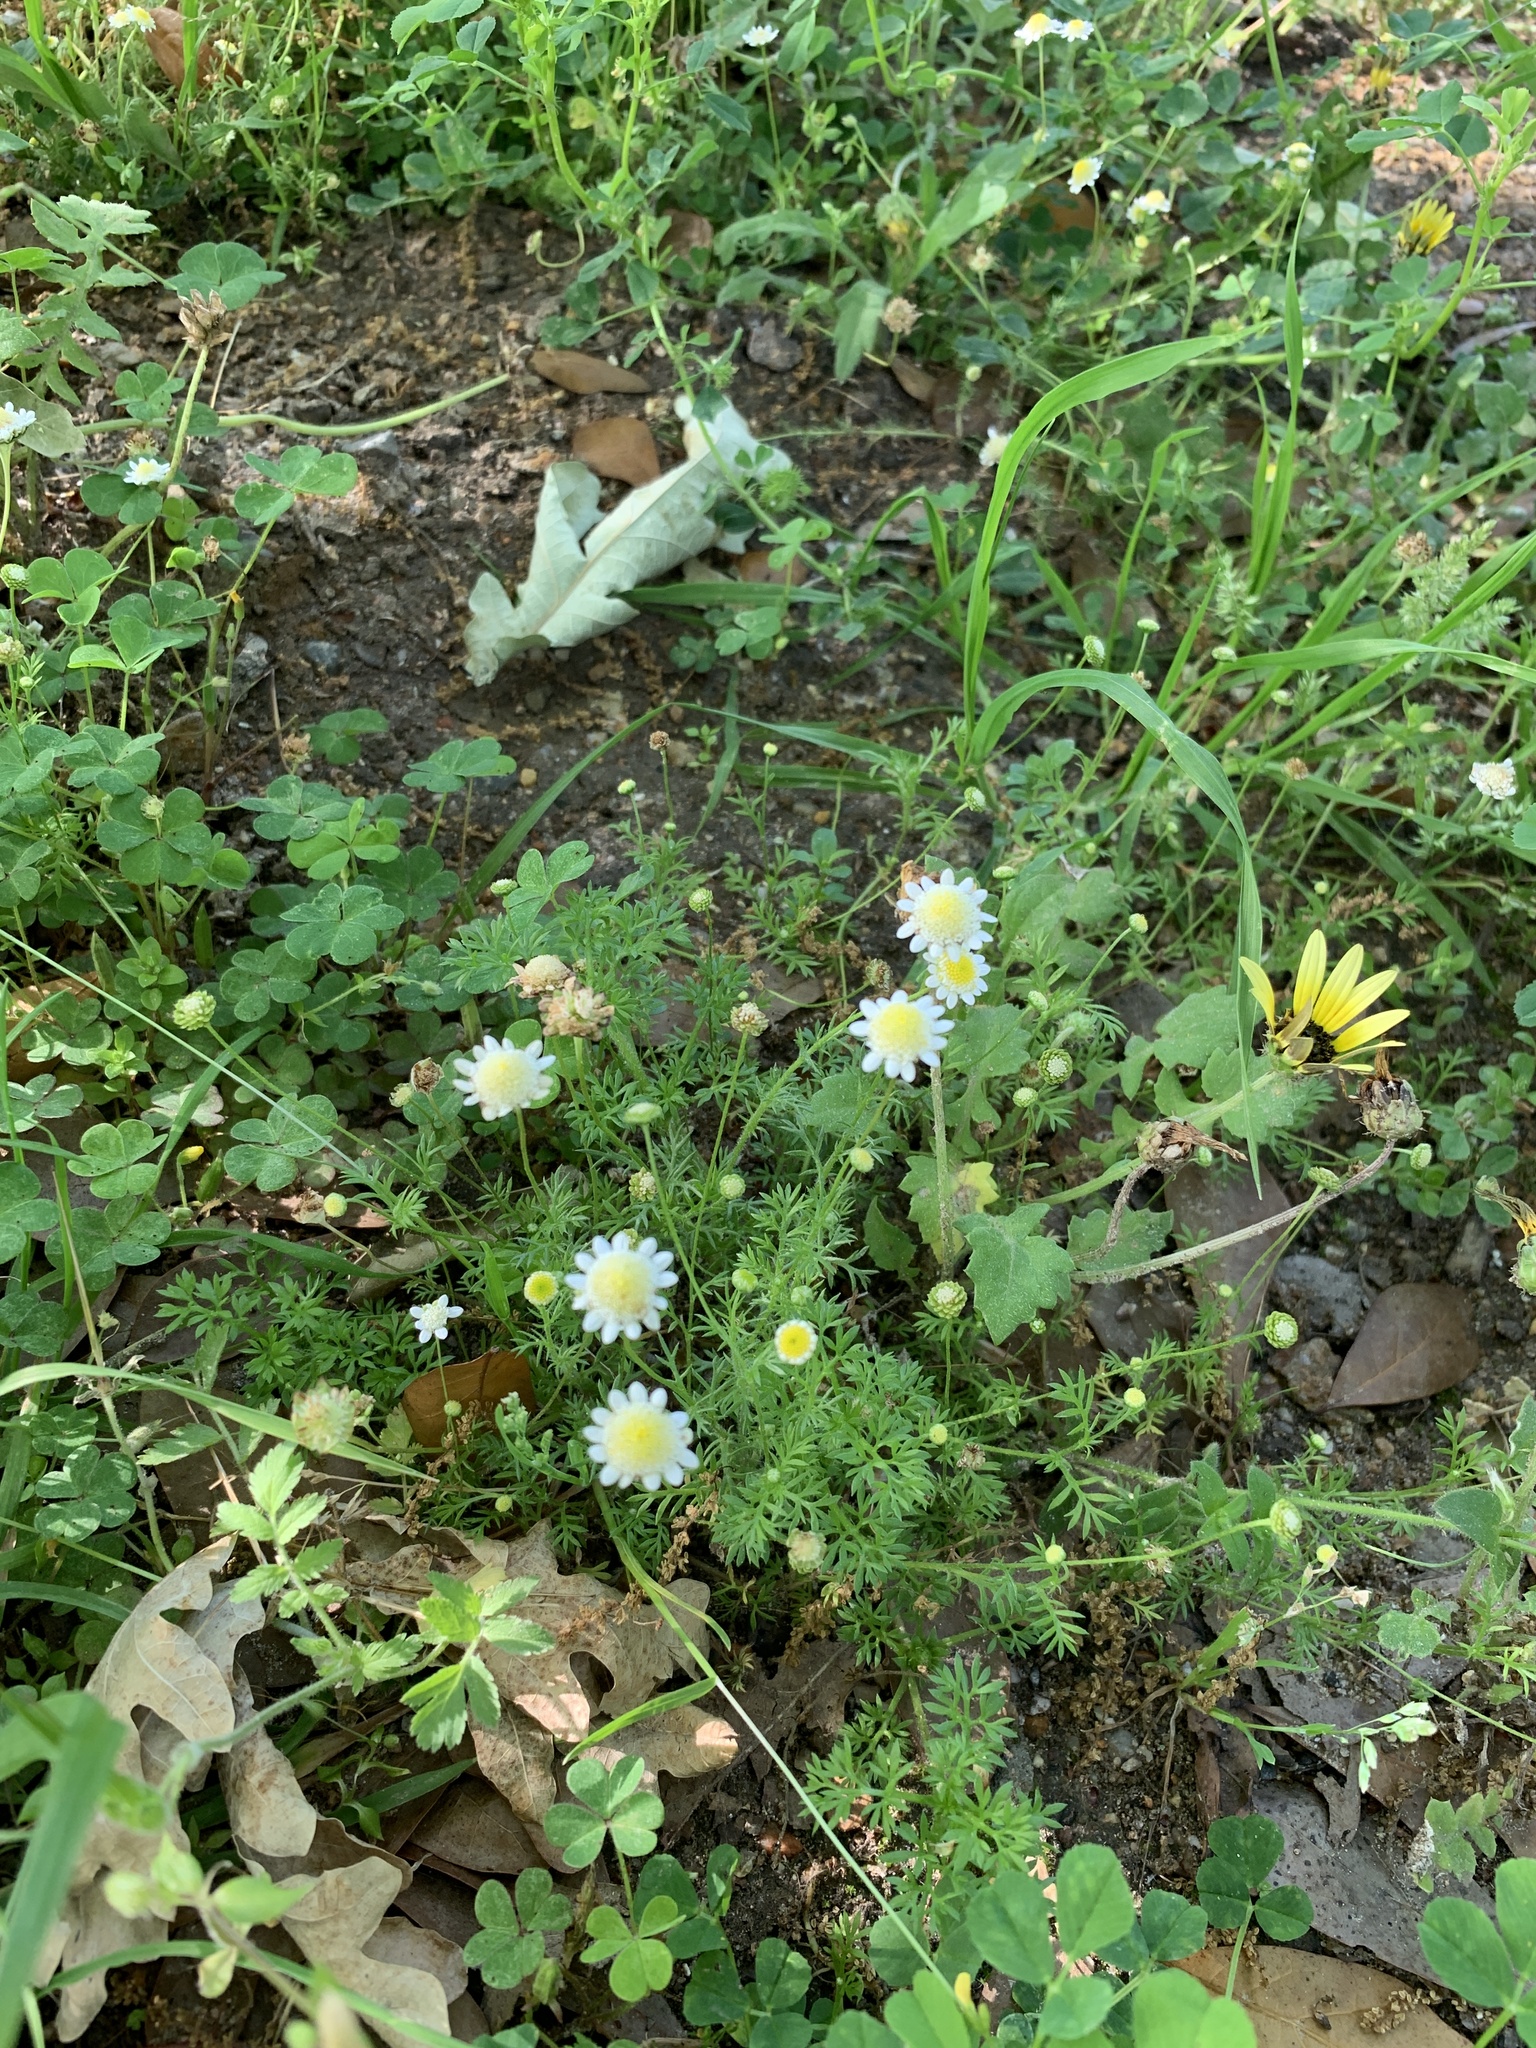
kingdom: Plantae
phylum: Tracheophyta
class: Magnoliopsida
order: Asterales
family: Asteraceae
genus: Cotula
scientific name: Cotula turbinata
